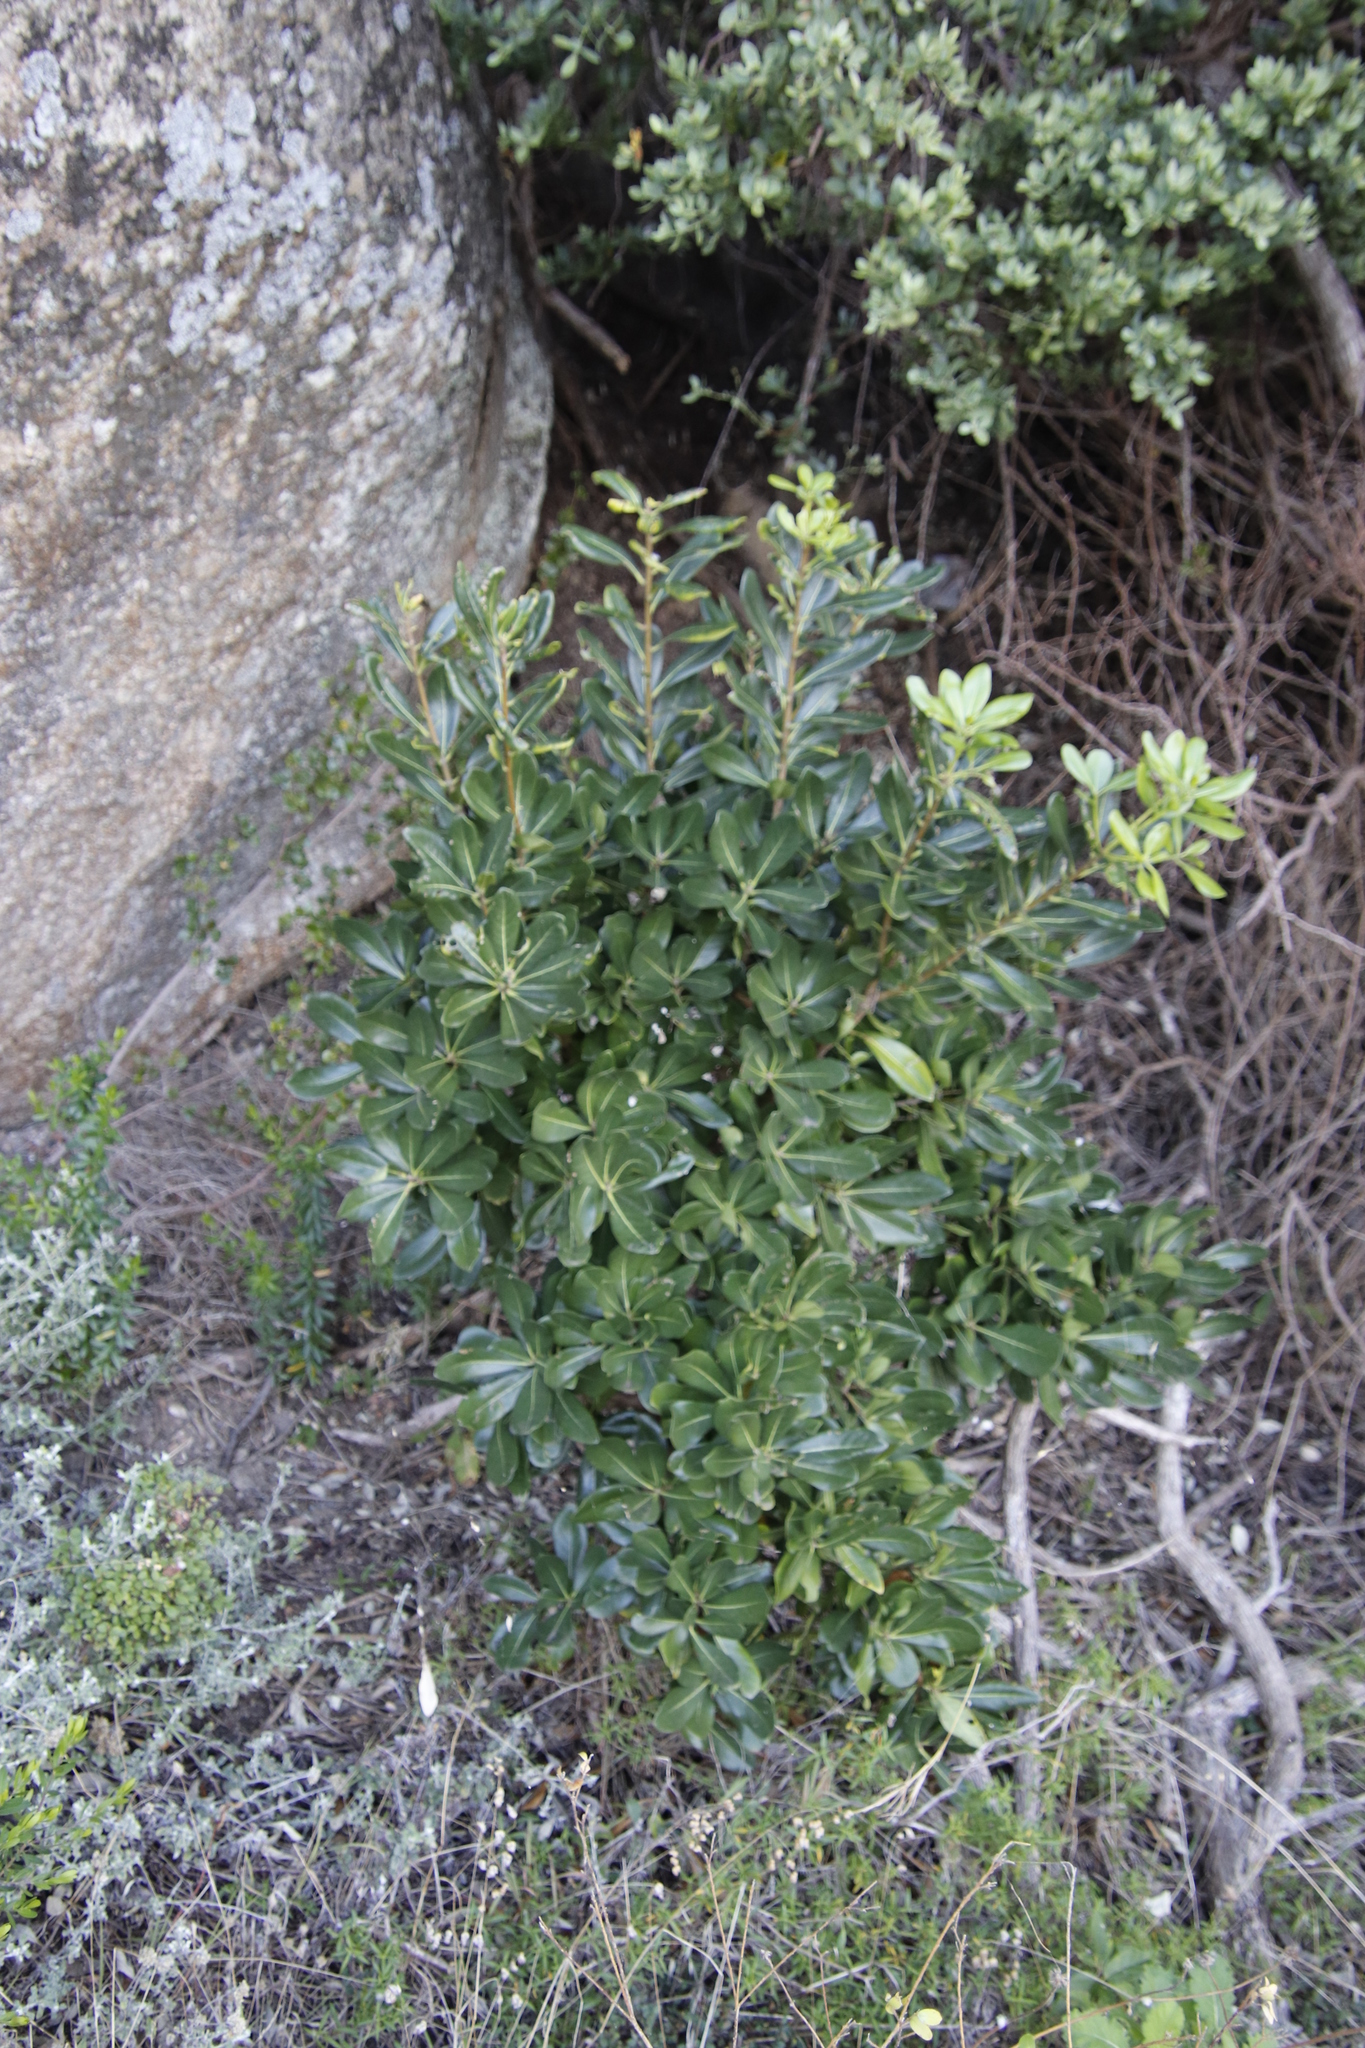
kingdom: Plantae
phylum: Tracheophyta
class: Magnoliopsida
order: Apiales
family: Pittosporaceae
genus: Pittosporum
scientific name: Pittosporum viridiflorum
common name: Cape cheesewood
